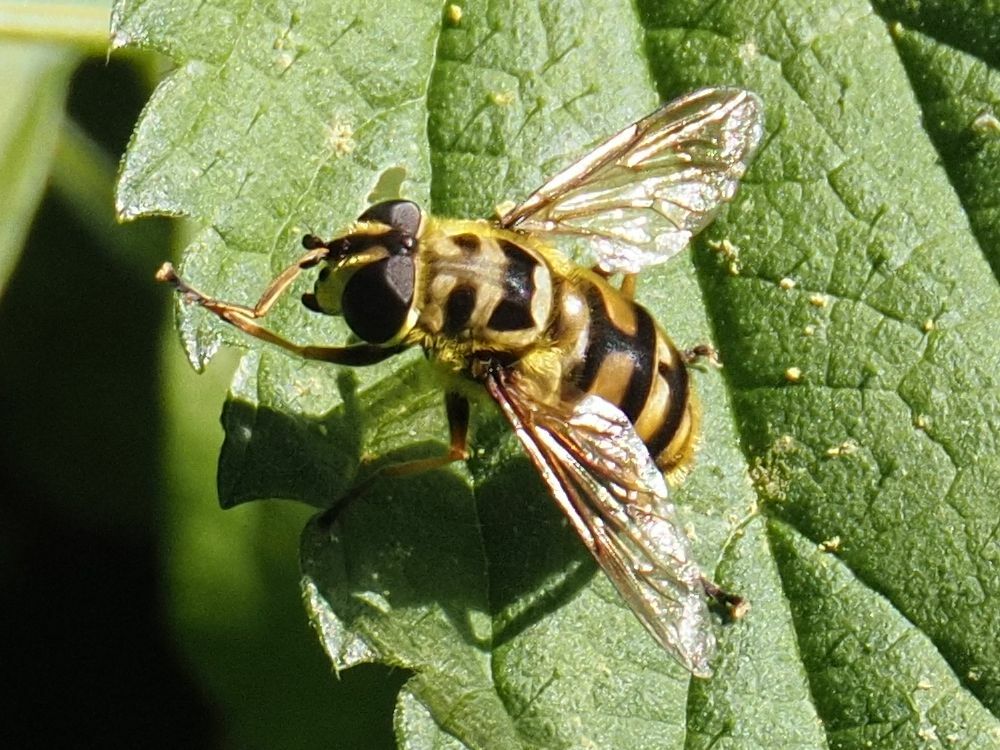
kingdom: Animalia
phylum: Arthropoda
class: Insecta
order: Diptera
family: Syrphidae
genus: Myathropa
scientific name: Myathropa florea
